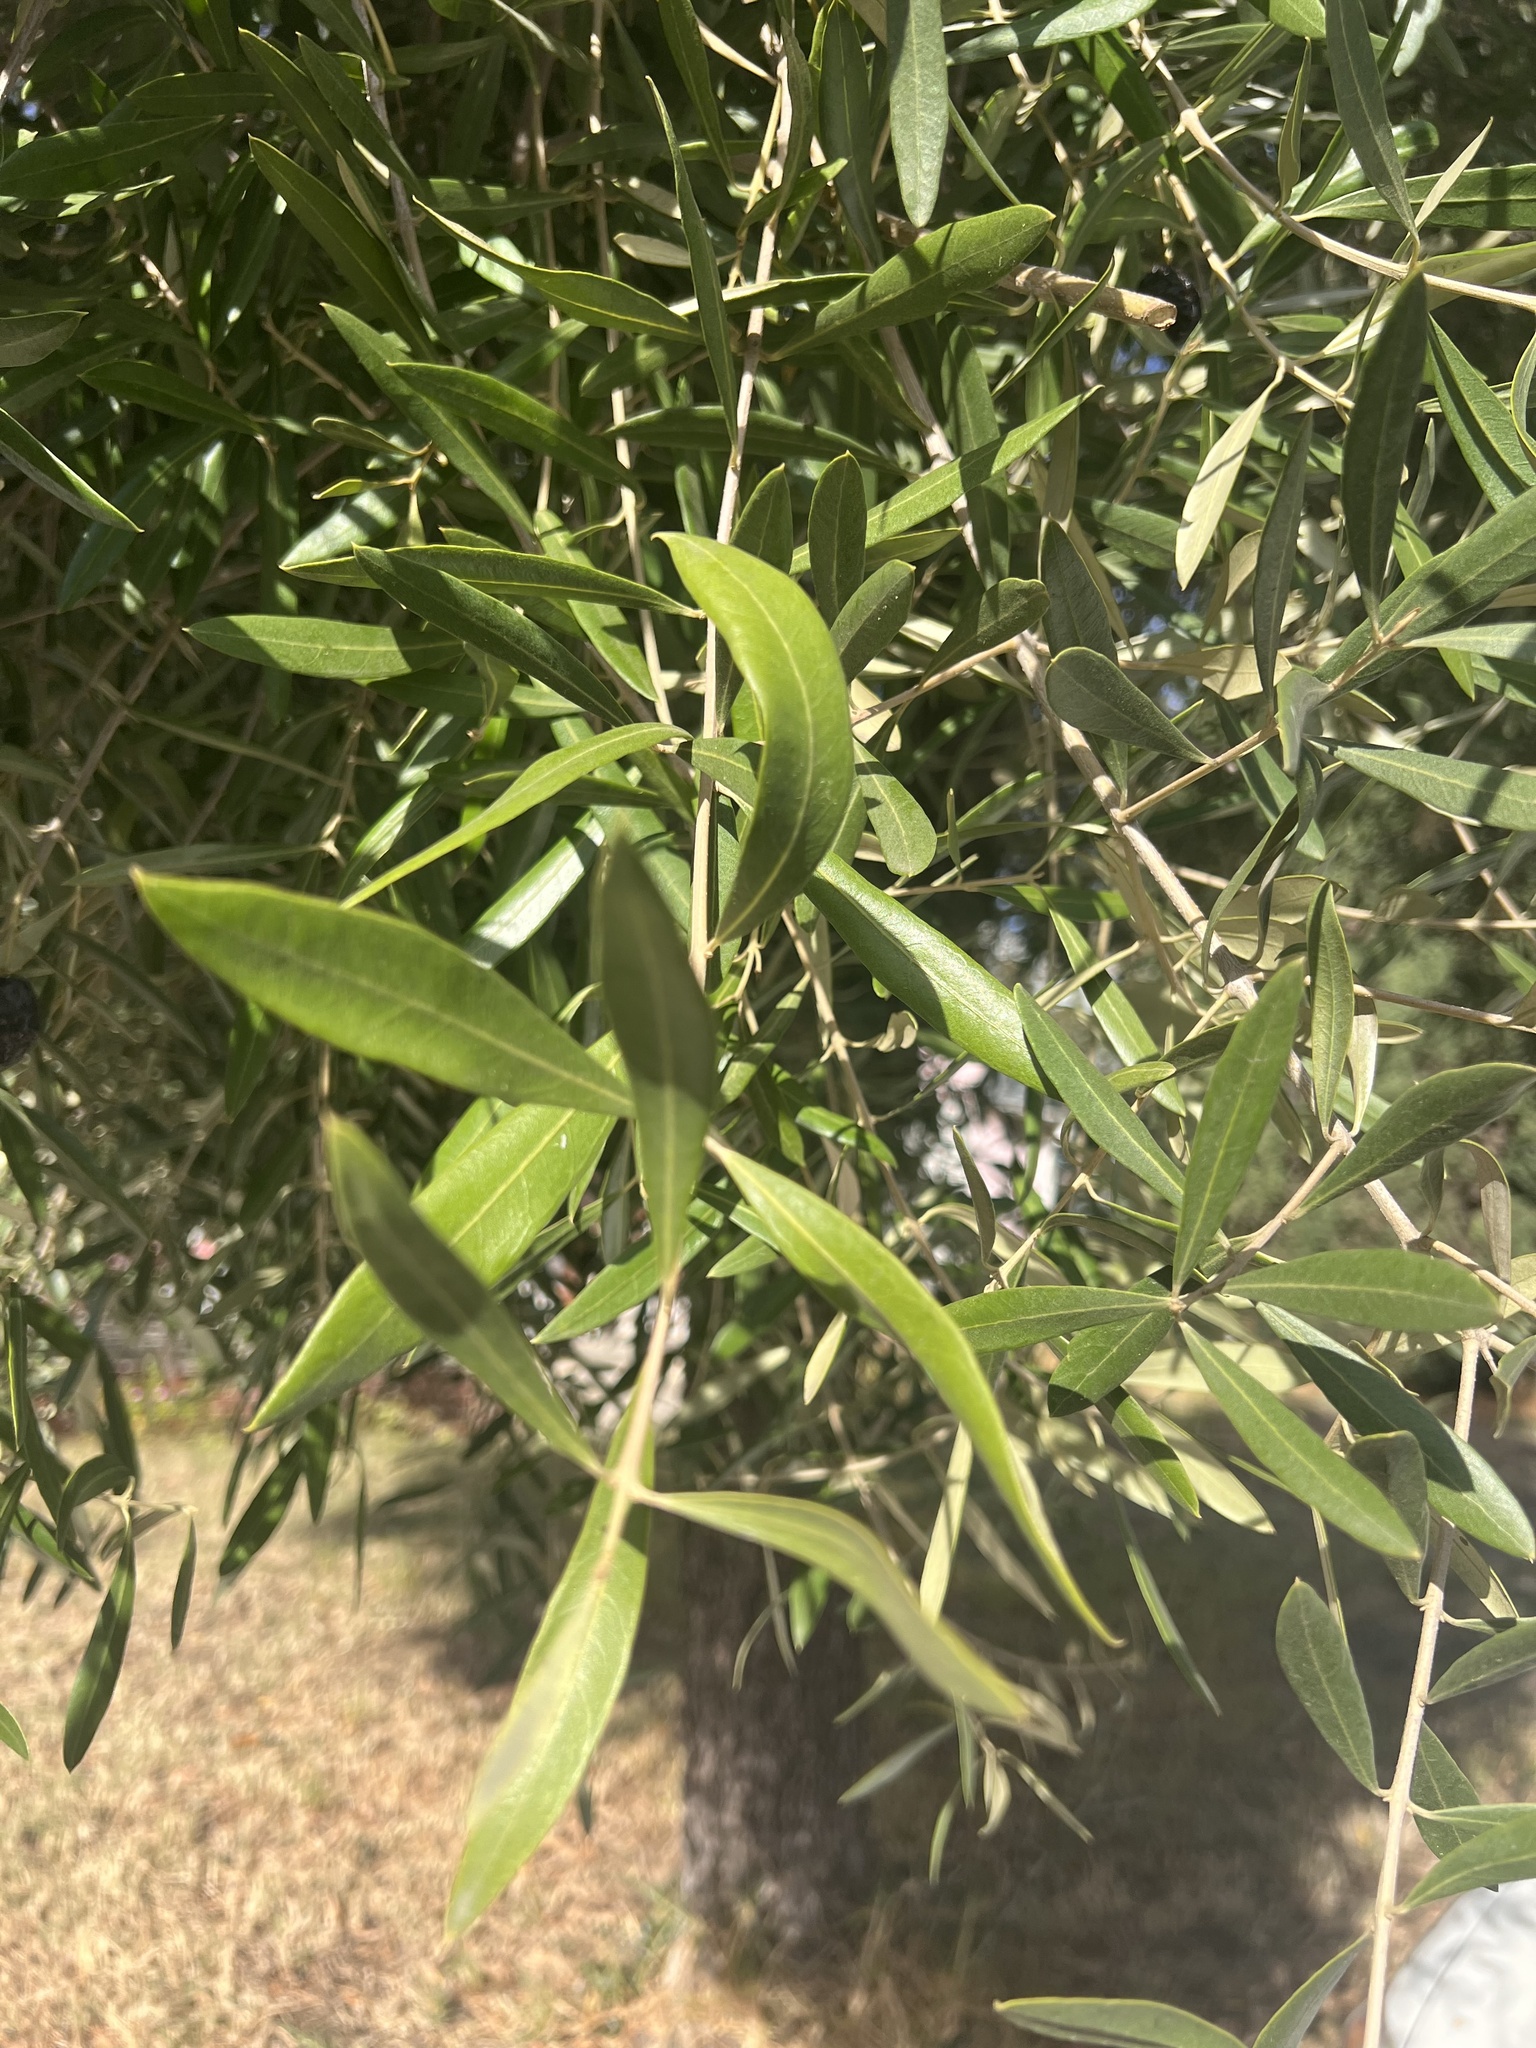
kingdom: Plantae
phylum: Tracheophyta
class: Magnoliopsida
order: Lamiales
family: Oleaceae
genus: Olea
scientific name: Olea europaea
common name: Olive
